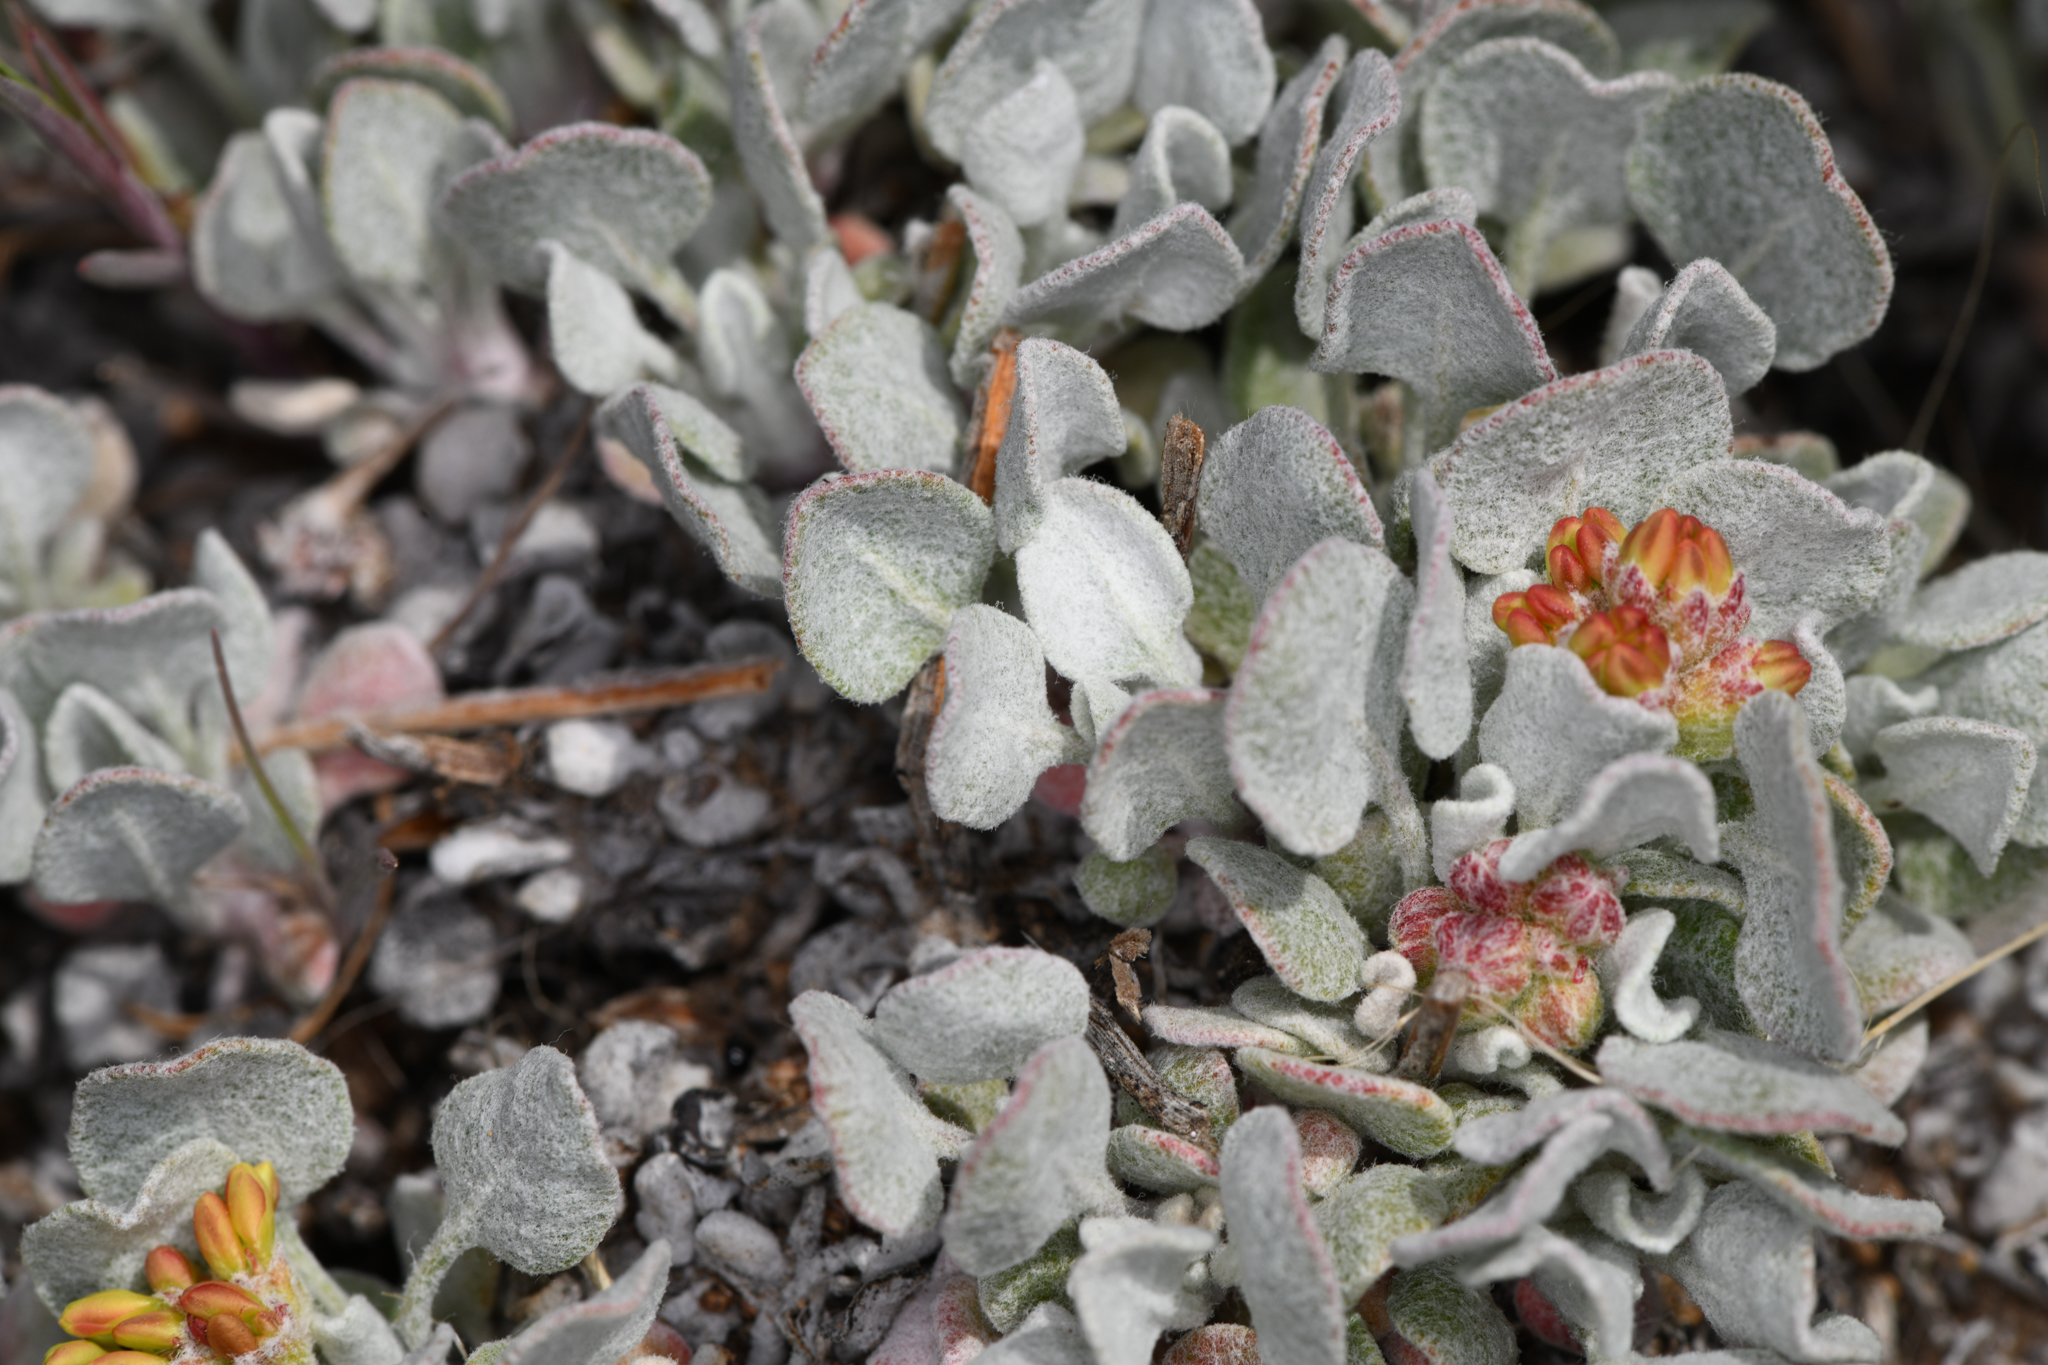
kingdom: Plantae
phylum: Tracheophyta
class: Magnoliopsida
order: Caryophyllales
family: Polygonaceae
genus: Eriogonum
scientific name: Eriogonum ovalifolium
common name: Cushion buckwheat
